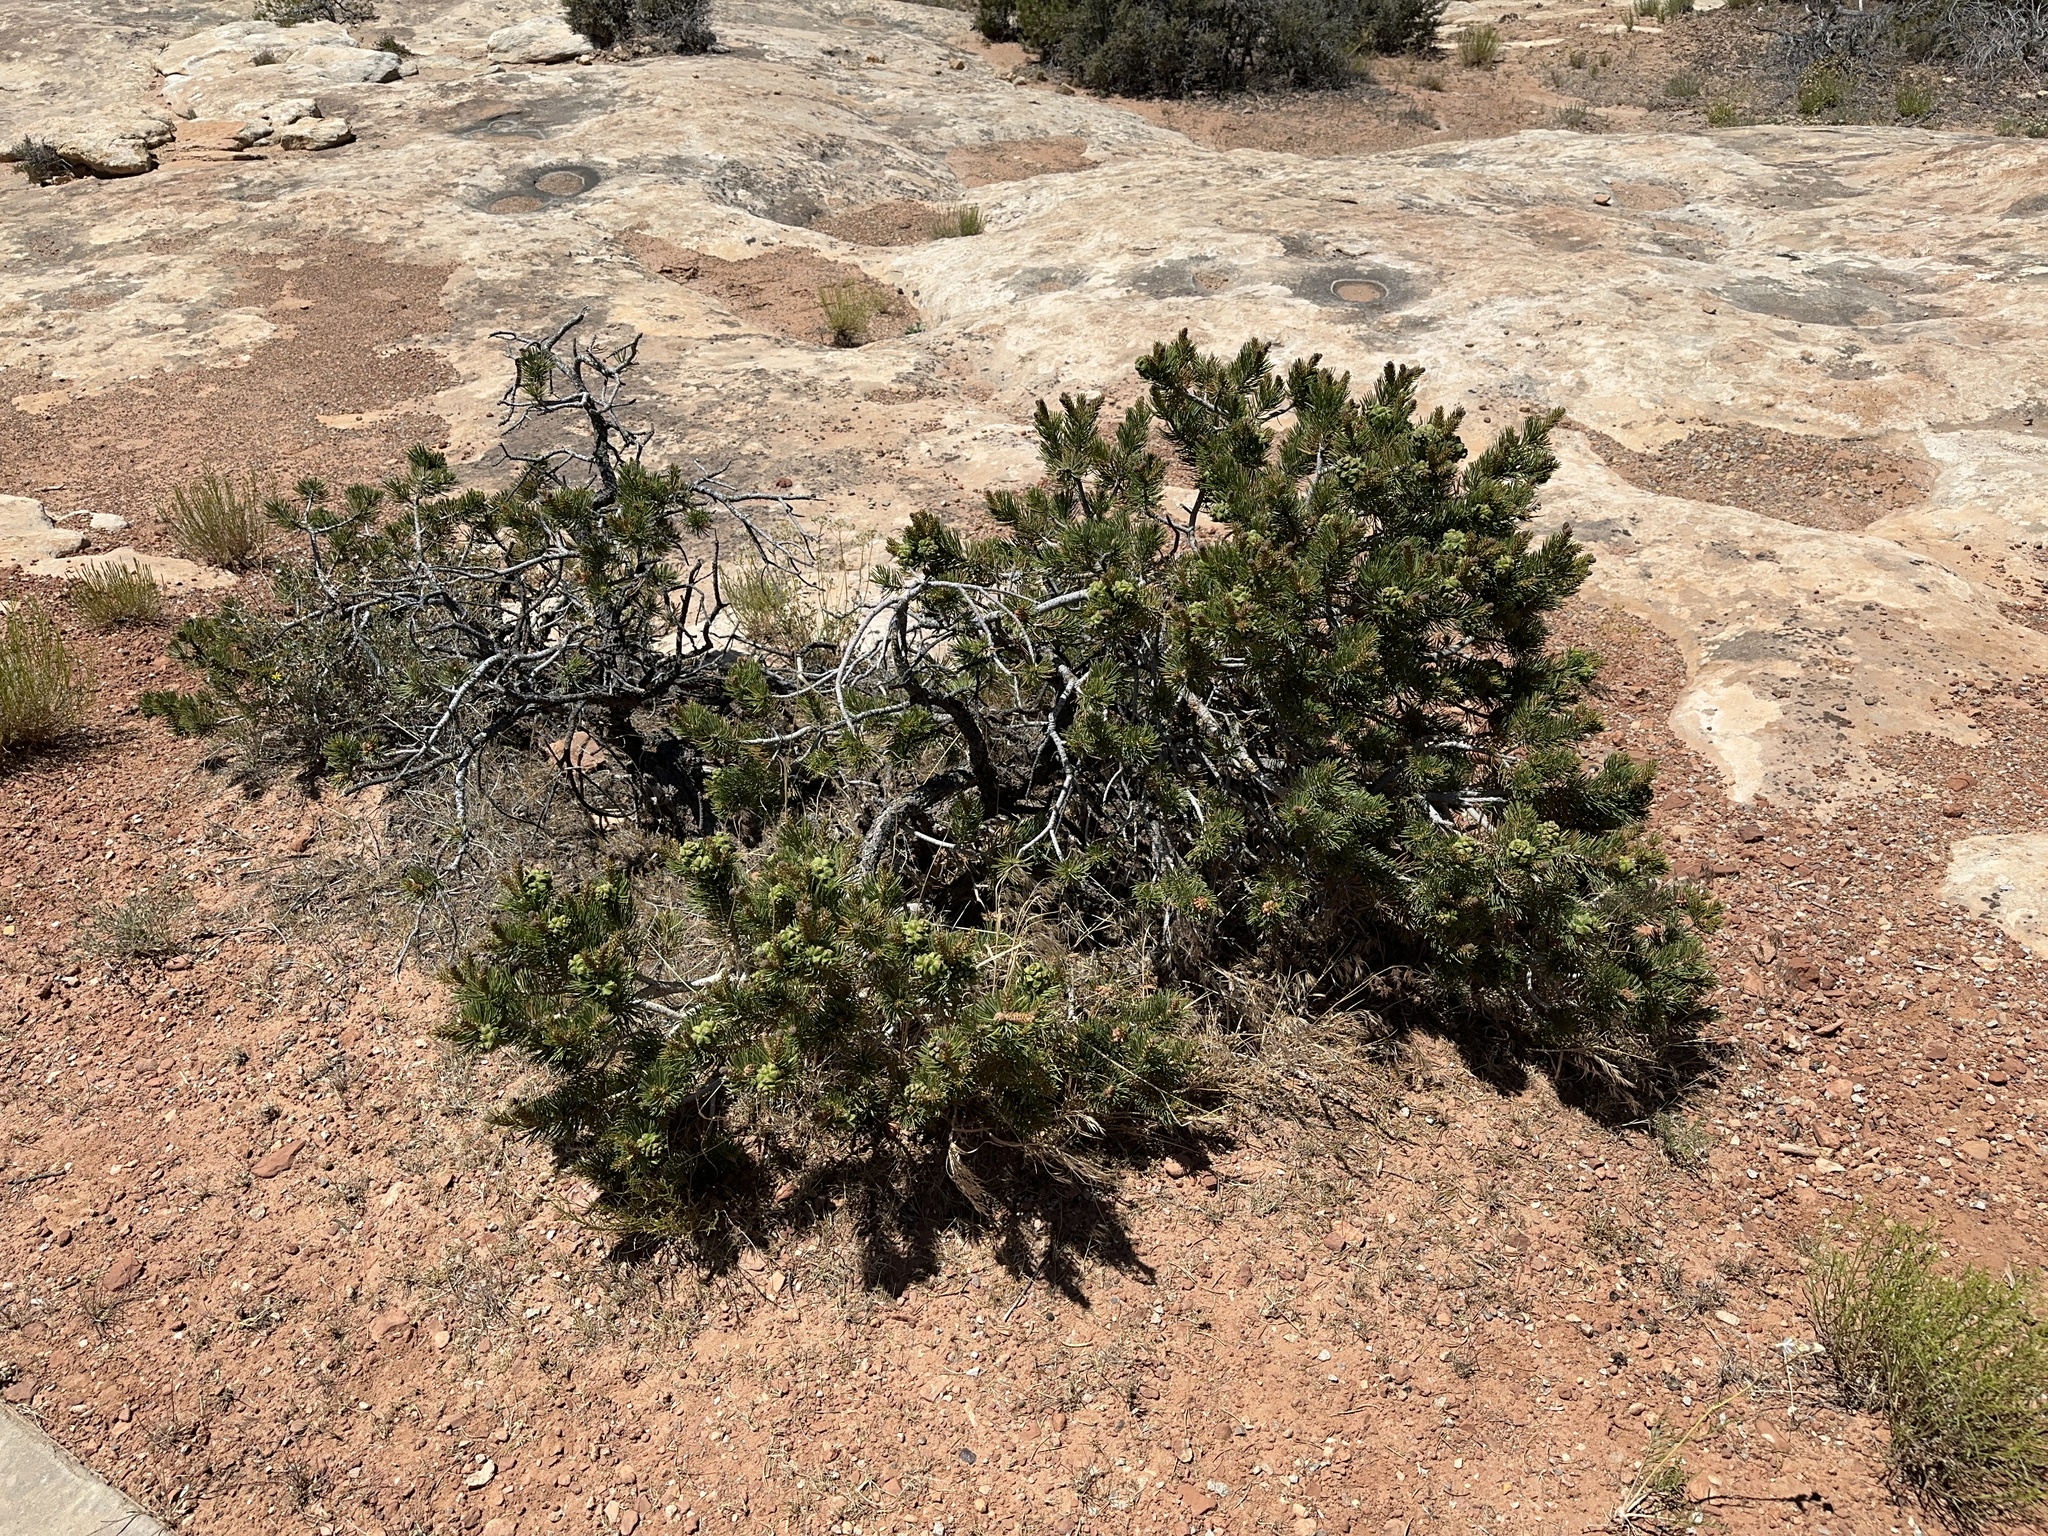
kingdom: Plantae
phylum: Tracheophyta
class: Pinopsida
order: Pinales
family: Pinaceae
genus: Pinus
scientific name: Pinus edulis
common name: Colorado pinyon
